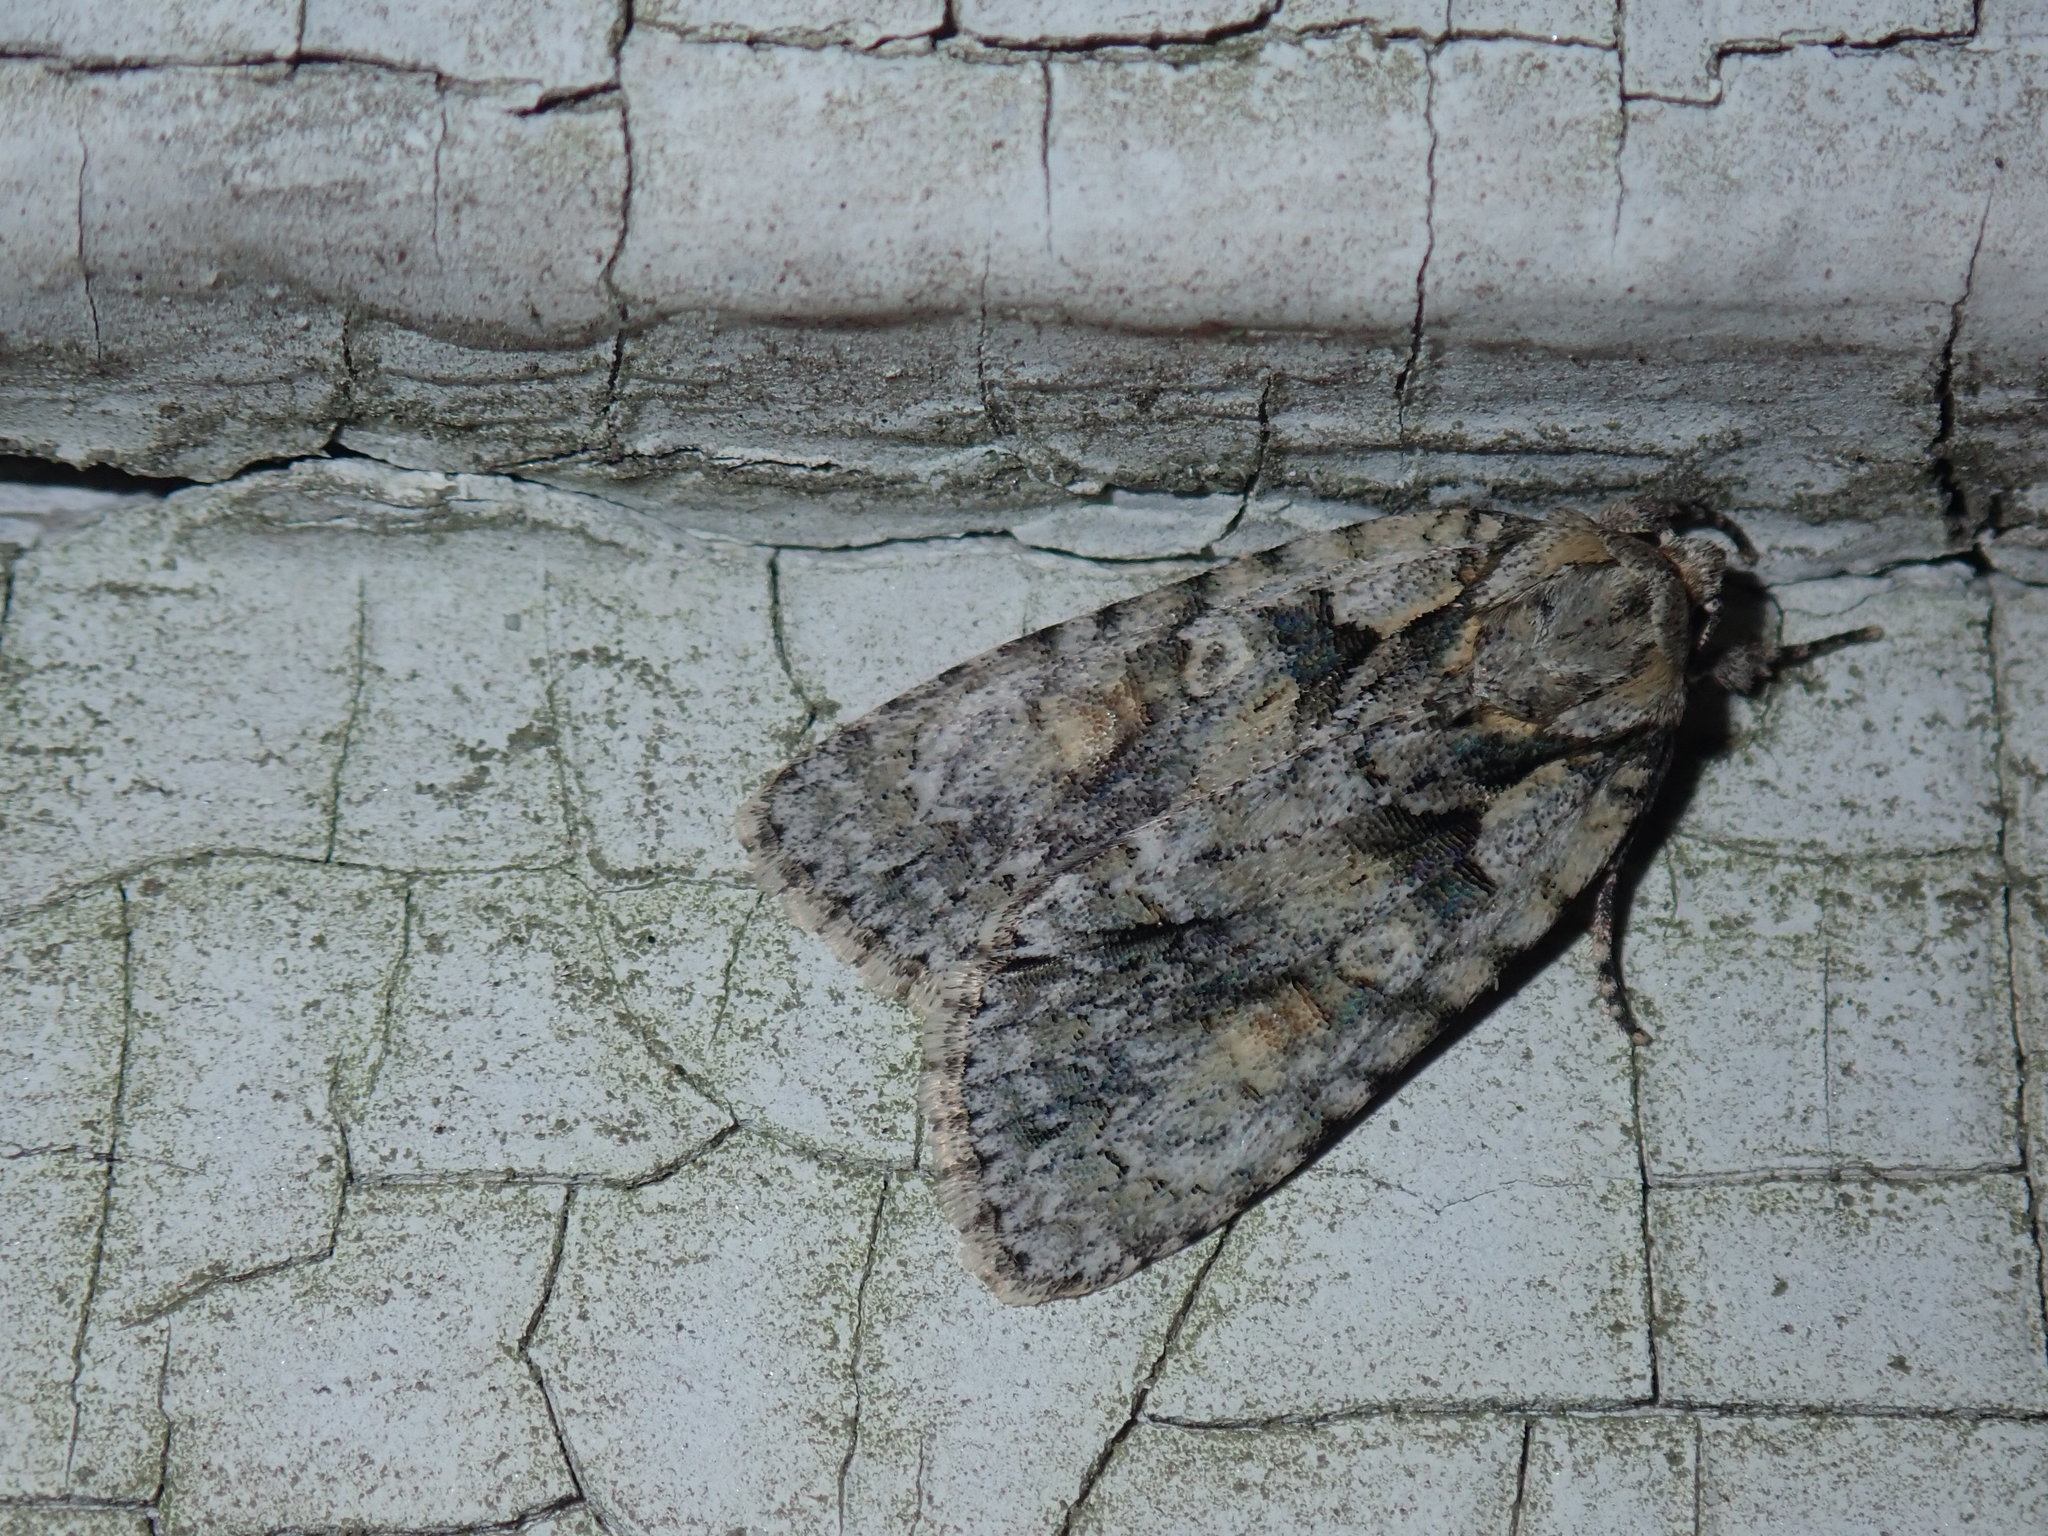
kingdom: Animalia
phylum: Arthropoda
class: Insecta
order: Lepidoptera
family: Noctuidae
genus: Acronicta
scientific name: Acronicta ovata
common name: Epauleted oak dagger
